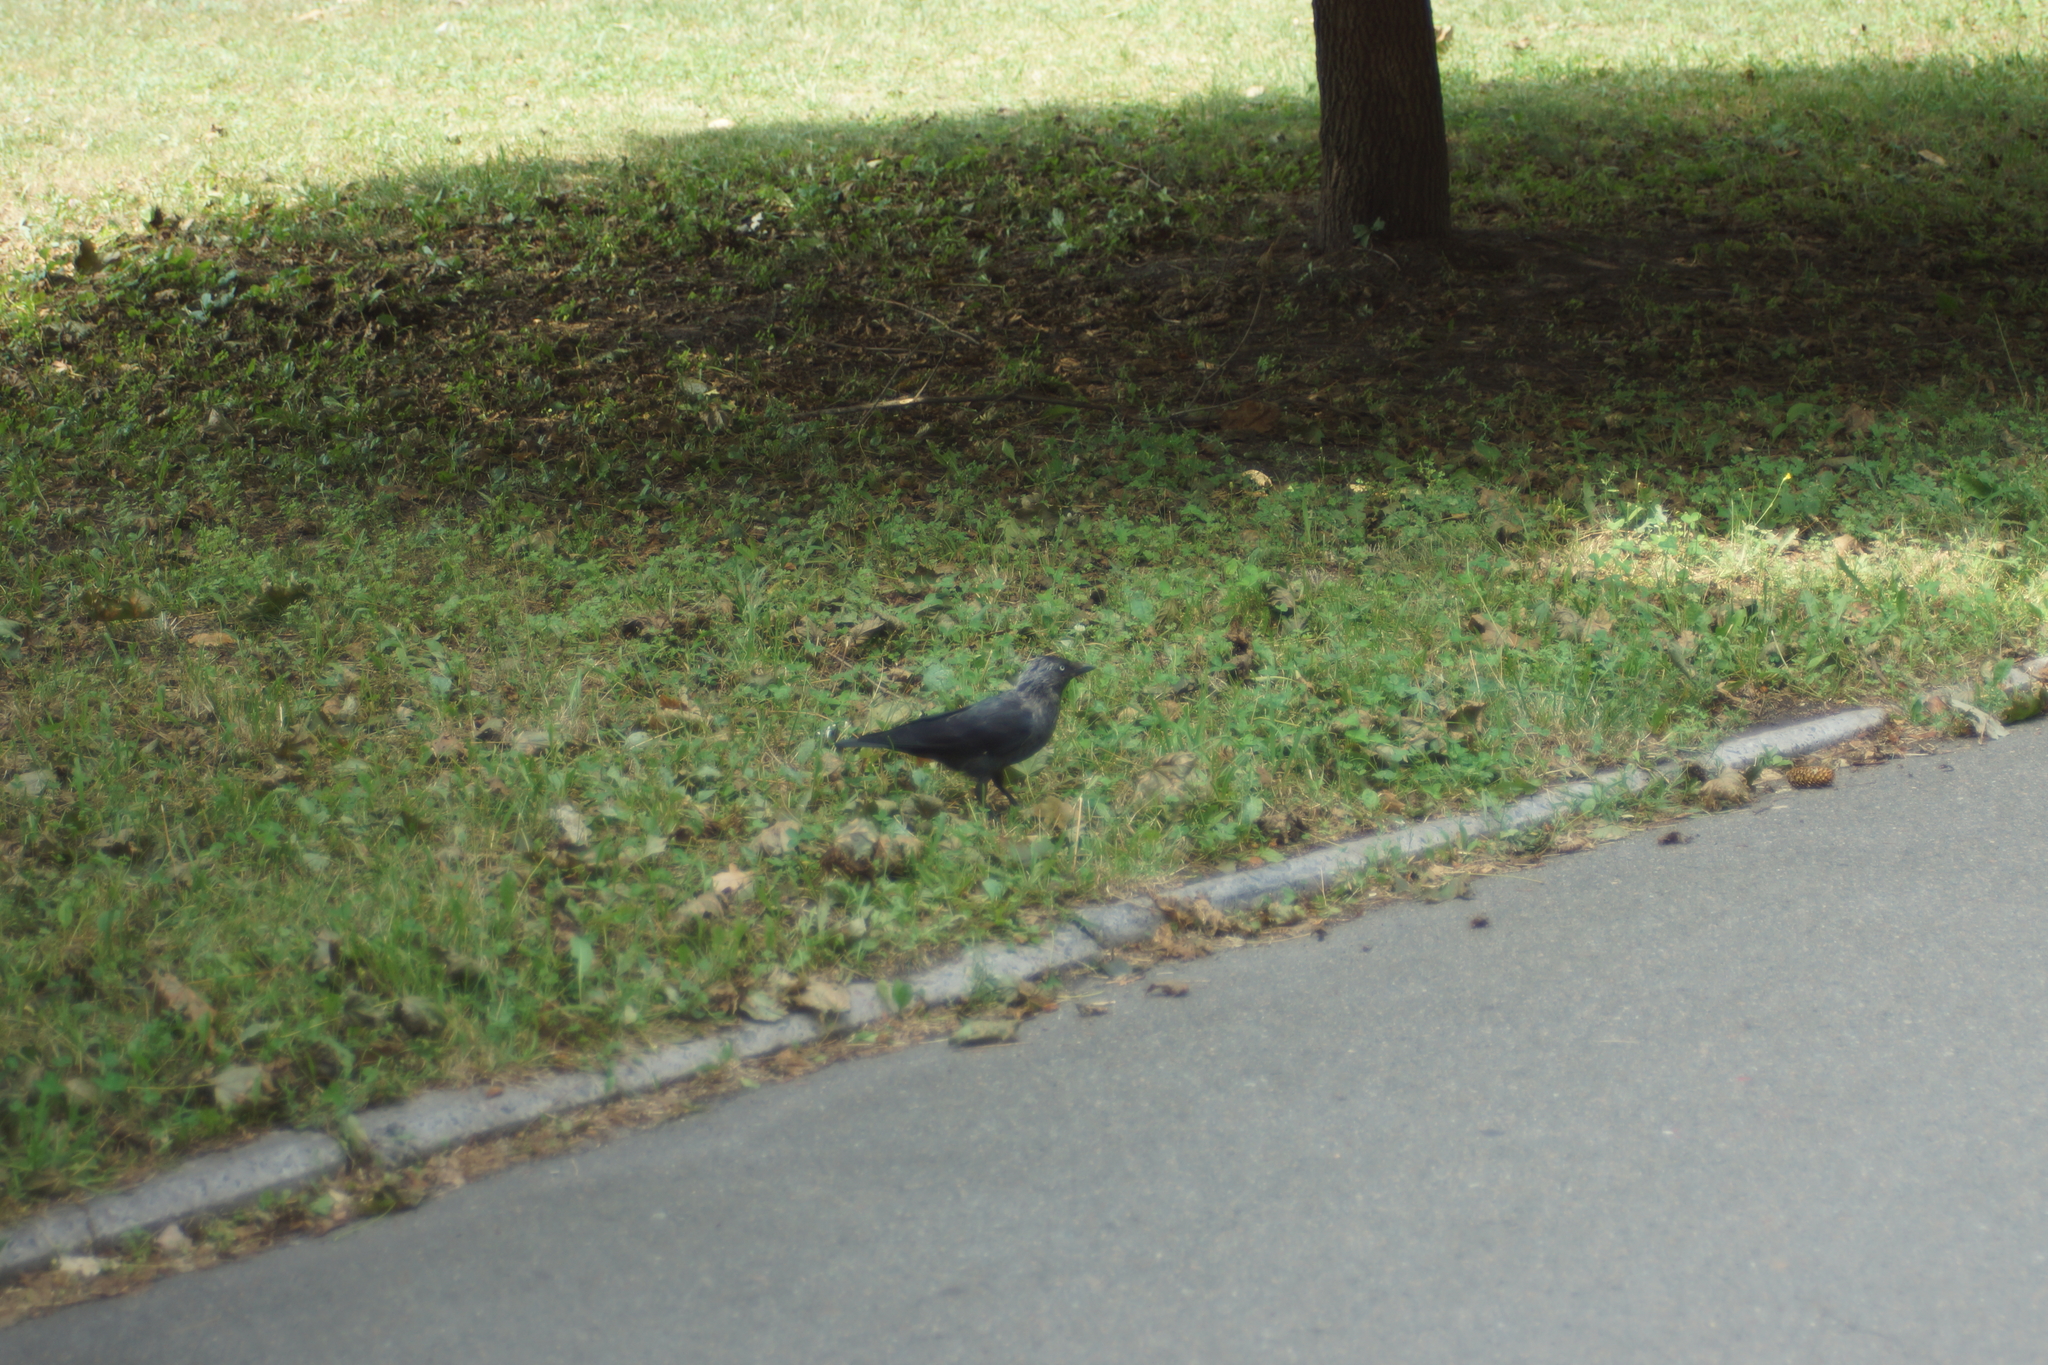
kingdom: Animalia
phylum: Chordata
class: Aves
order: Passeriformes
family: Corvidae
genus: Coloeus
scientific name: Coloeus monedula
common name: Western jackdaw
